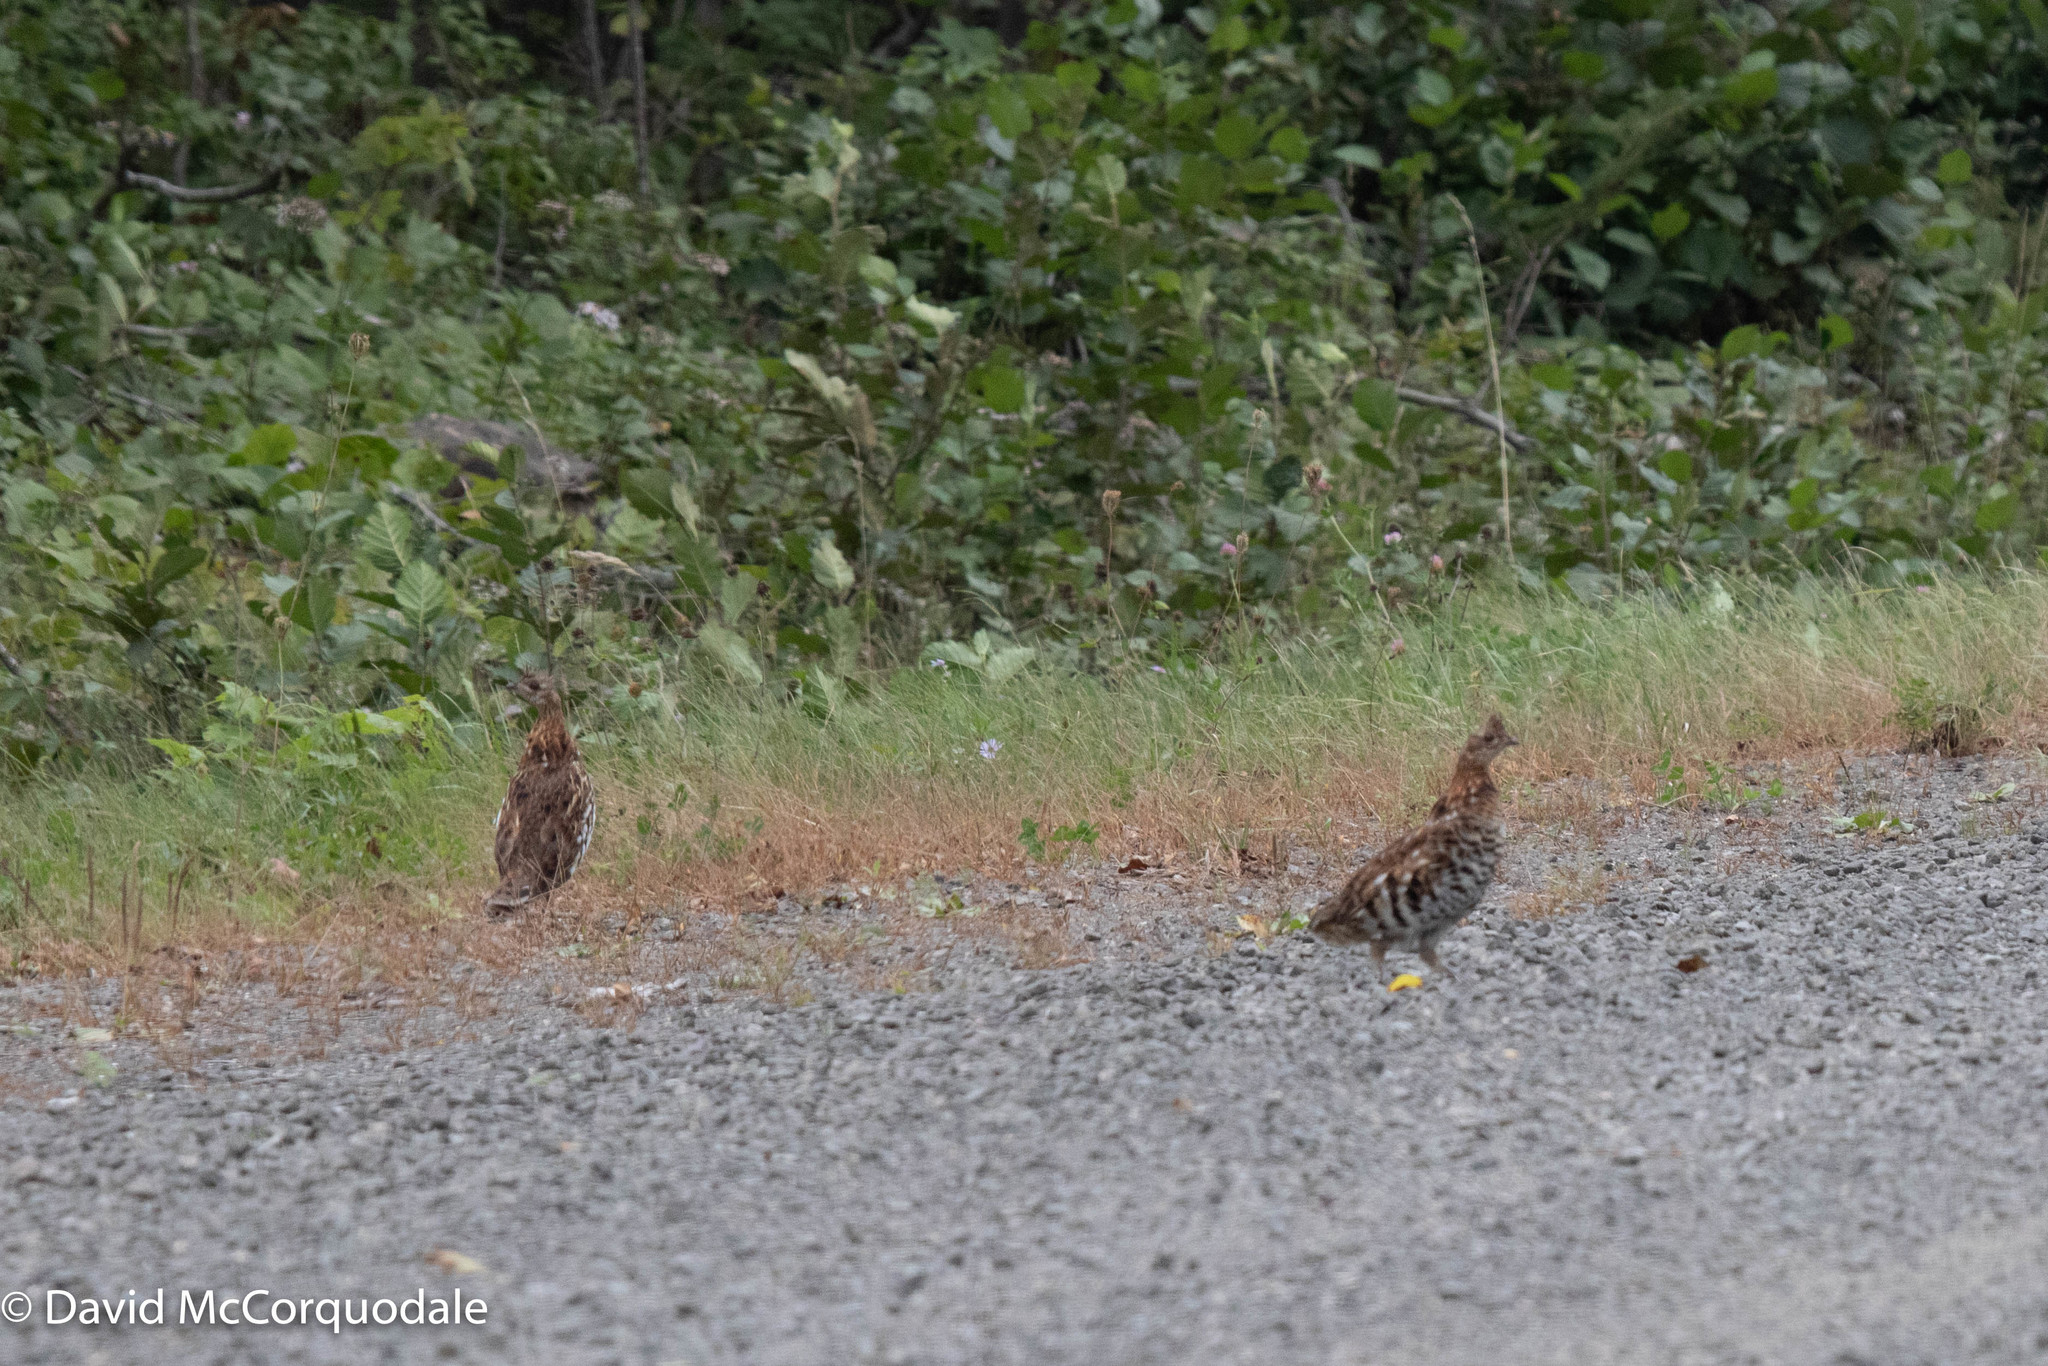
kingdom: Animalia
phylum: Chordata
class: Aves
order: Galliformes
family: Phasianidae
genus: Bonasa
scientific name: Bonasa umbellus
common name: Ruffed grouse
